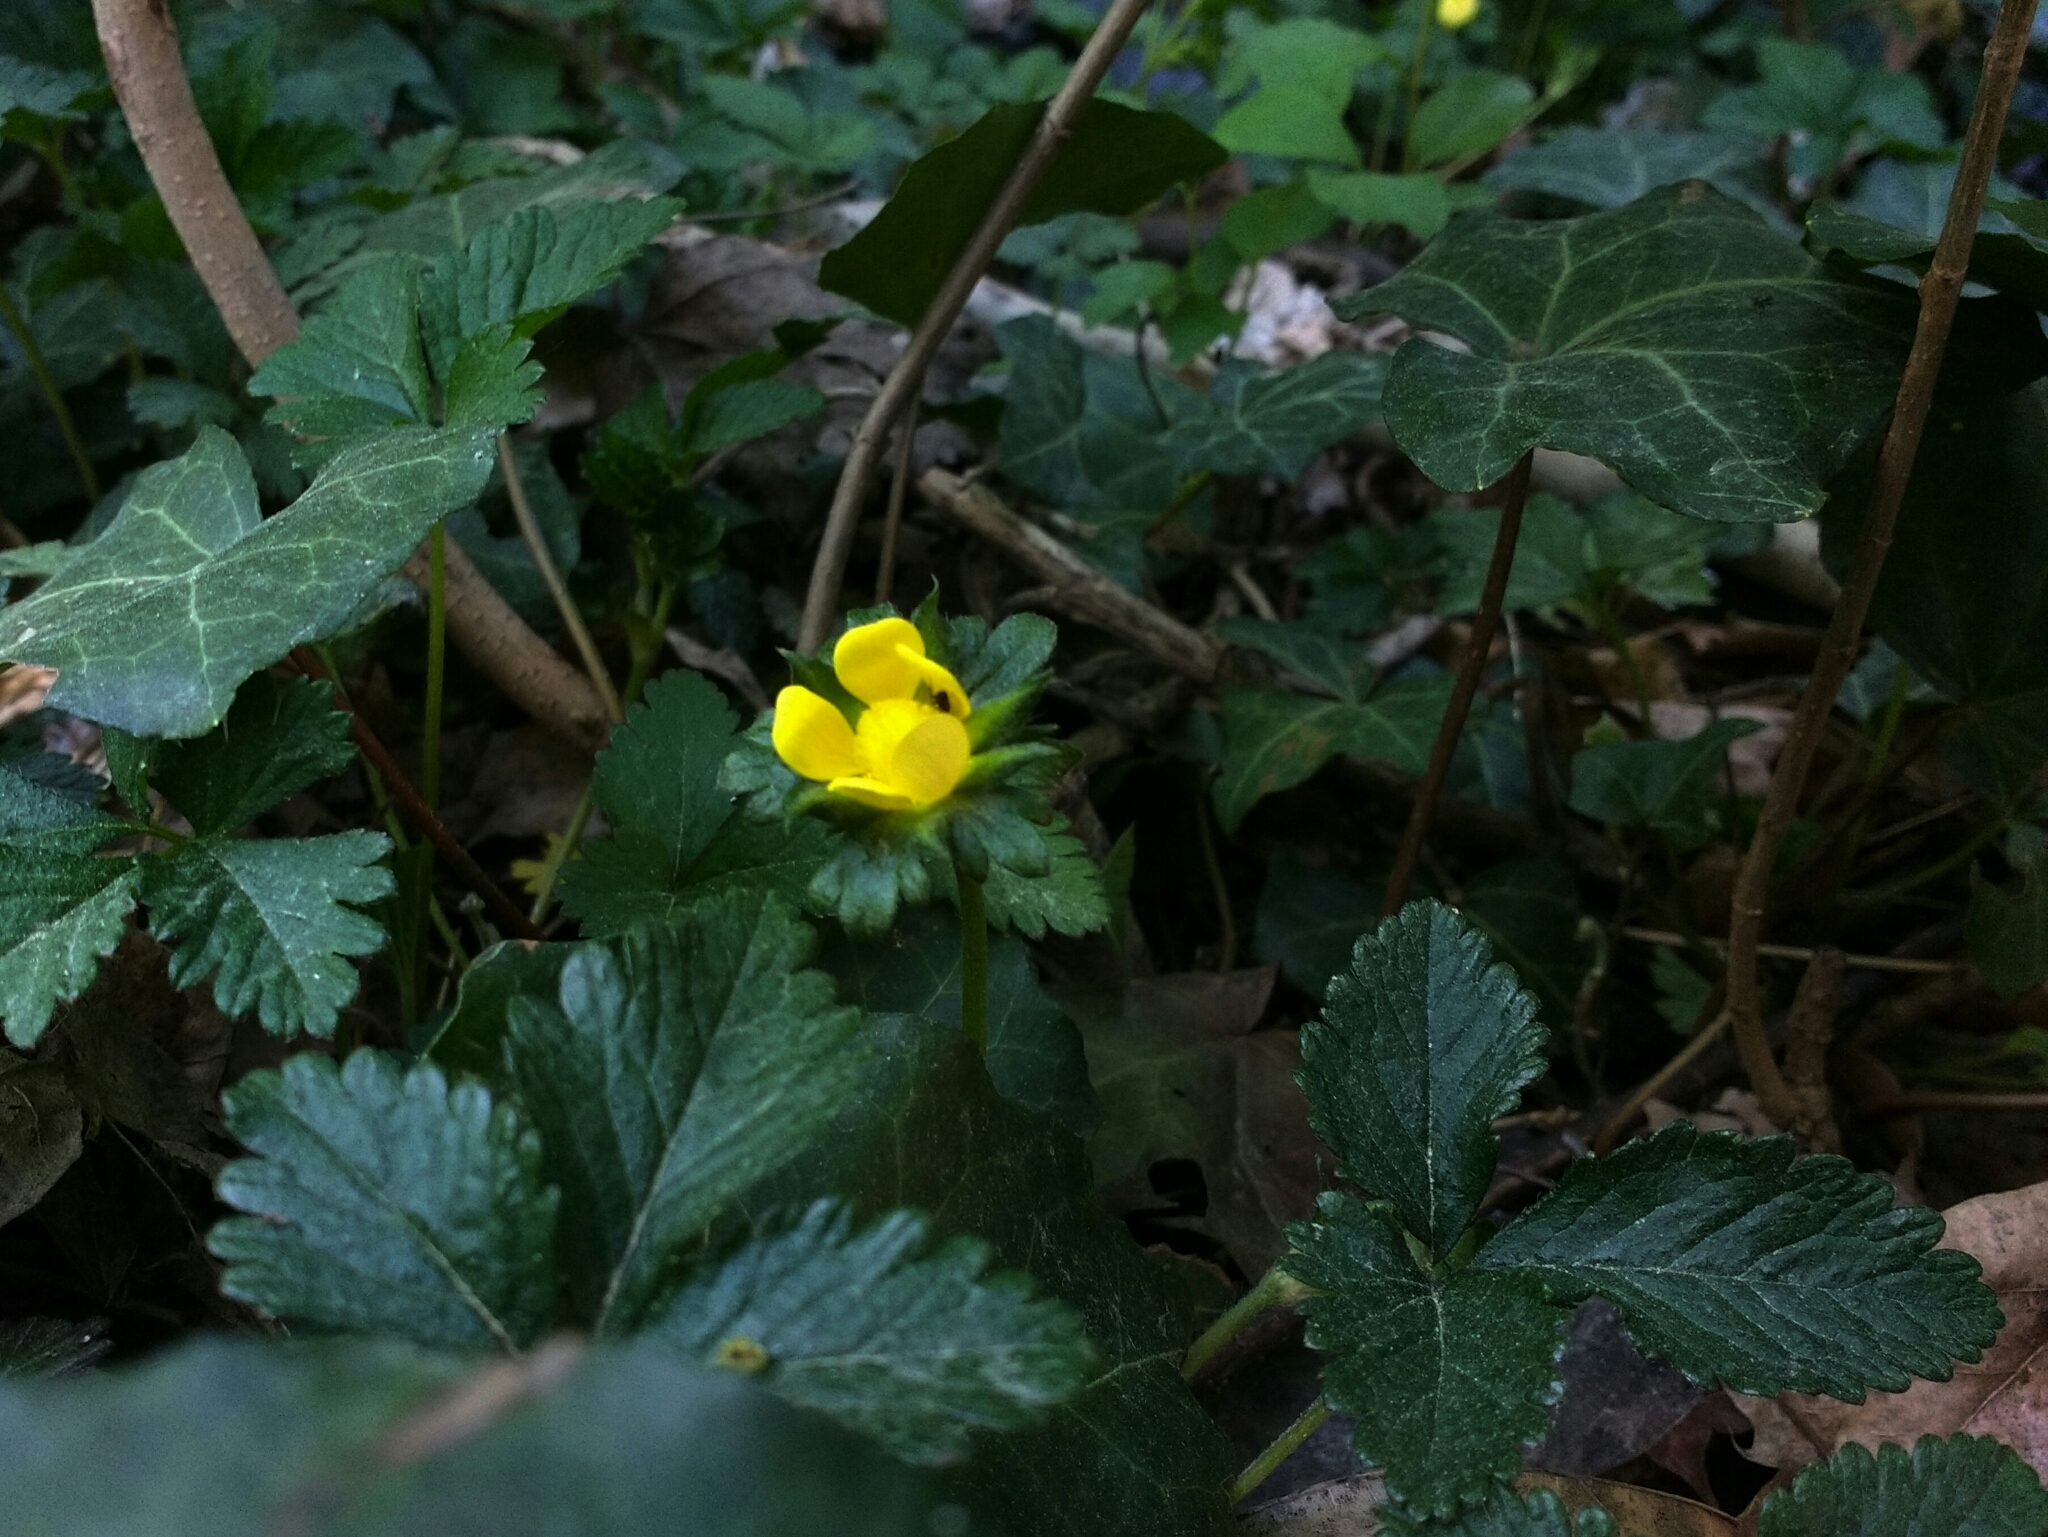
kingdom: Plantae
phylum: Tracheophyta
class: Magnoliopsida
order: Rosales
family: Rosaceae
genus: Potentilla
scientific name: Potentilla indica
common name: Yellow-flowered strawberry
